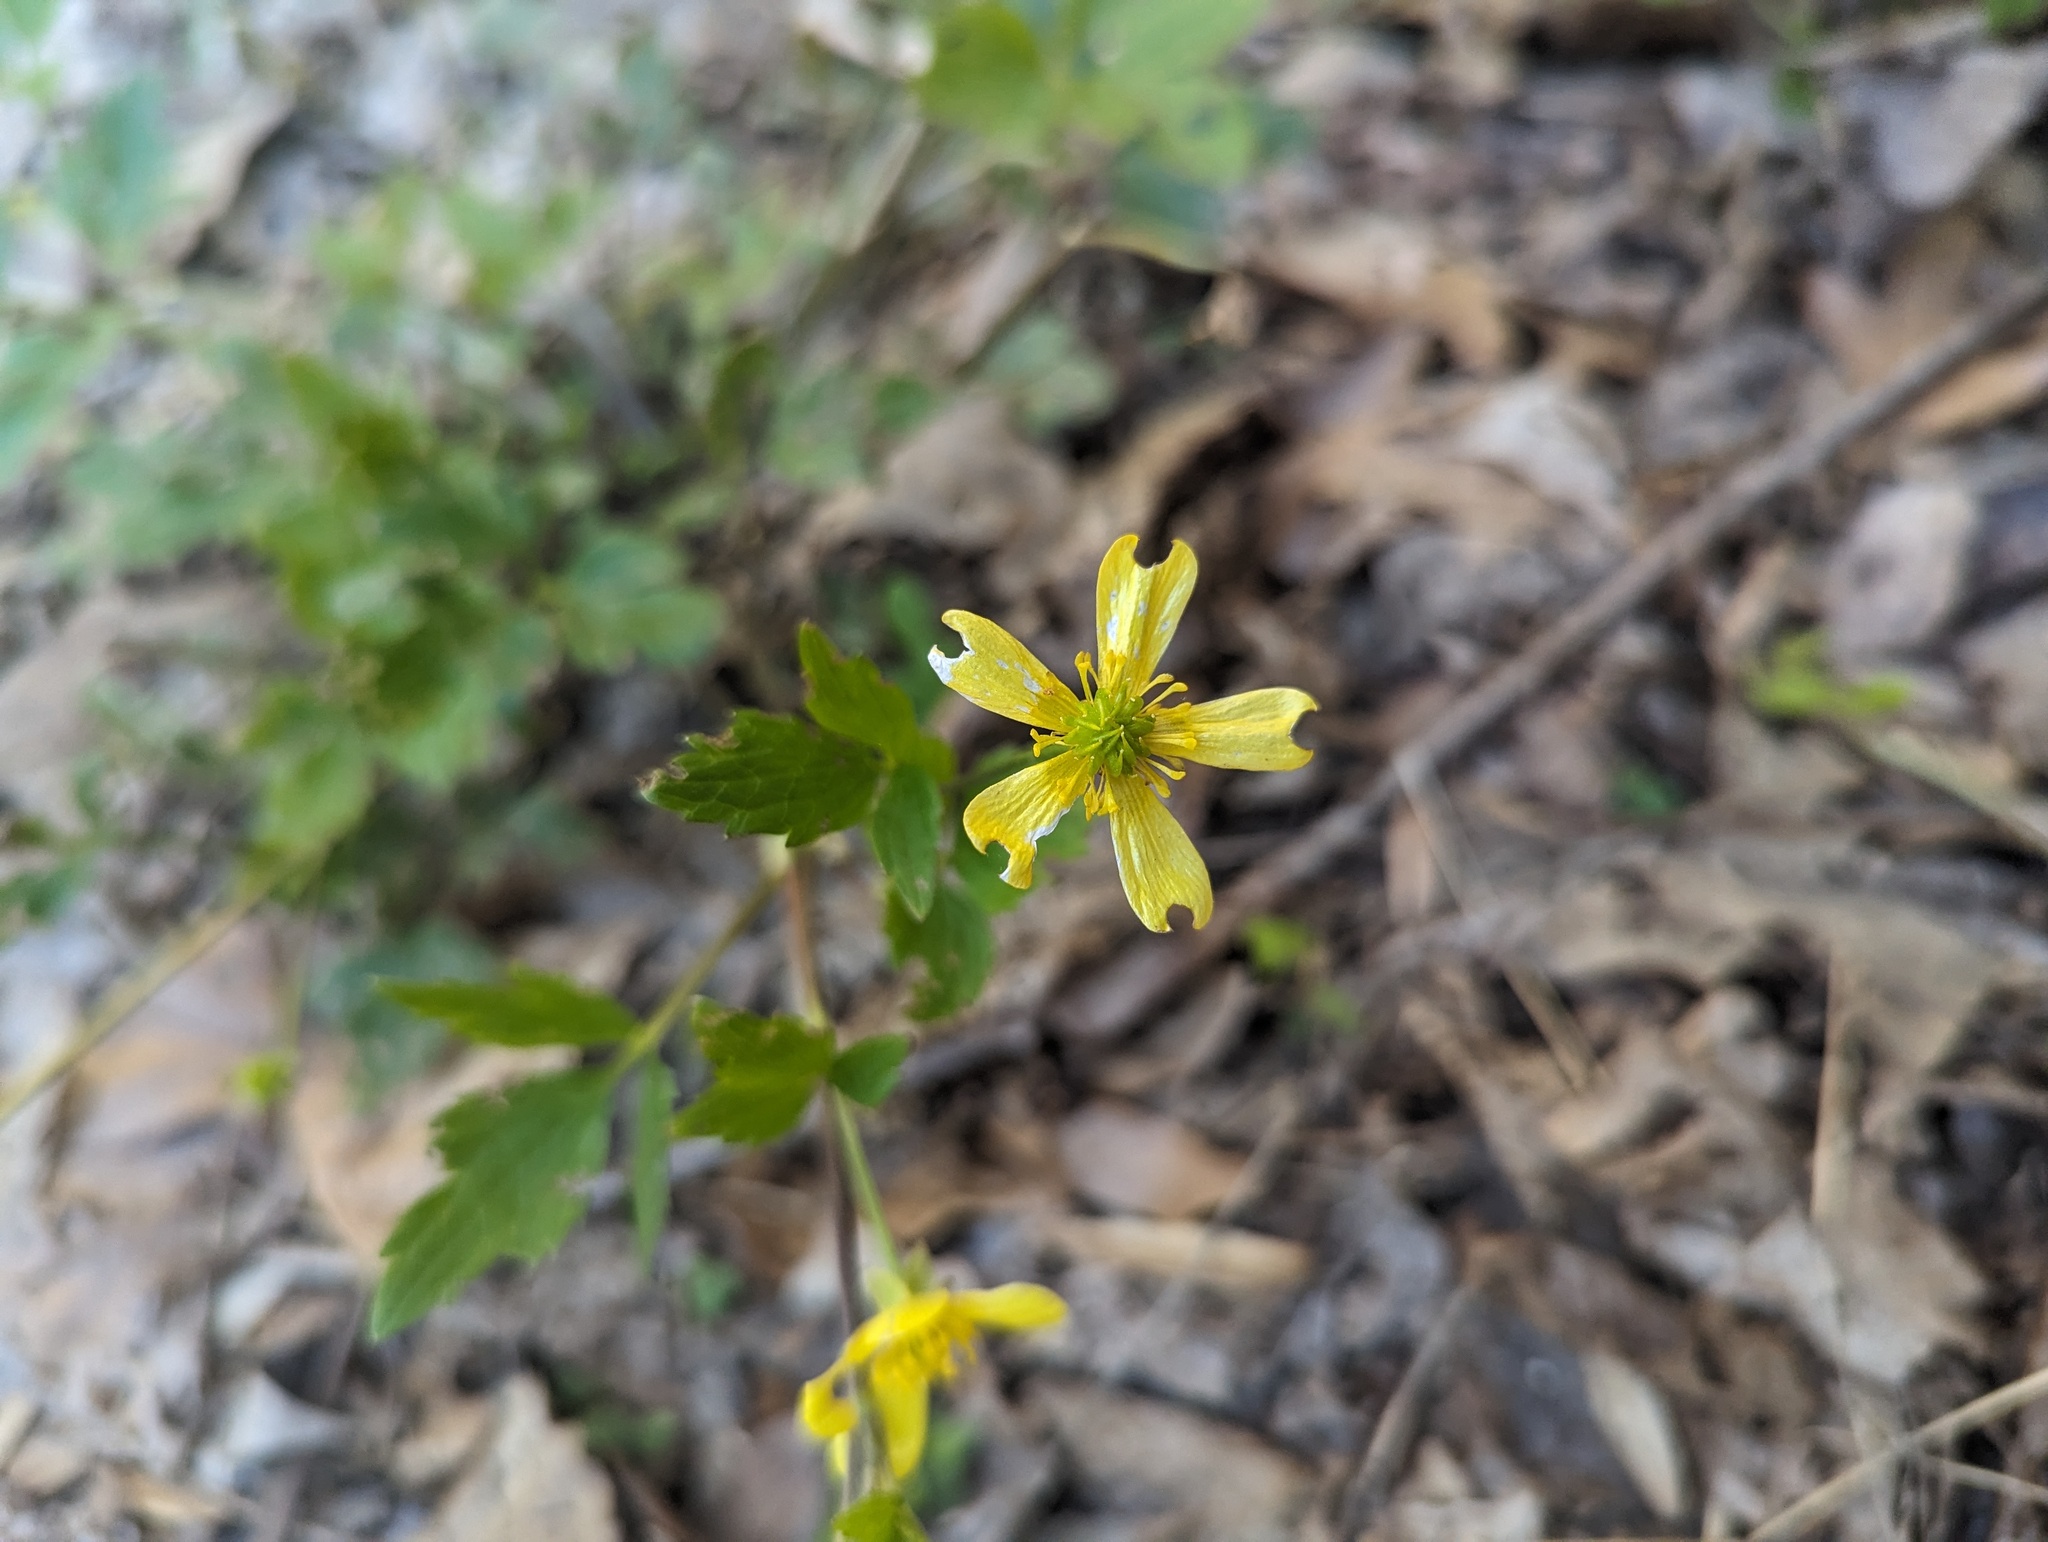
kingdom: Plantae
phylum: Tracheophyta
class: Magnoliopsida
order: Ranunculales
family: Ranunculaceae
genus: Ranunculus
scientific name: Ranunculus hispidus
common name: Bristly buttercup
